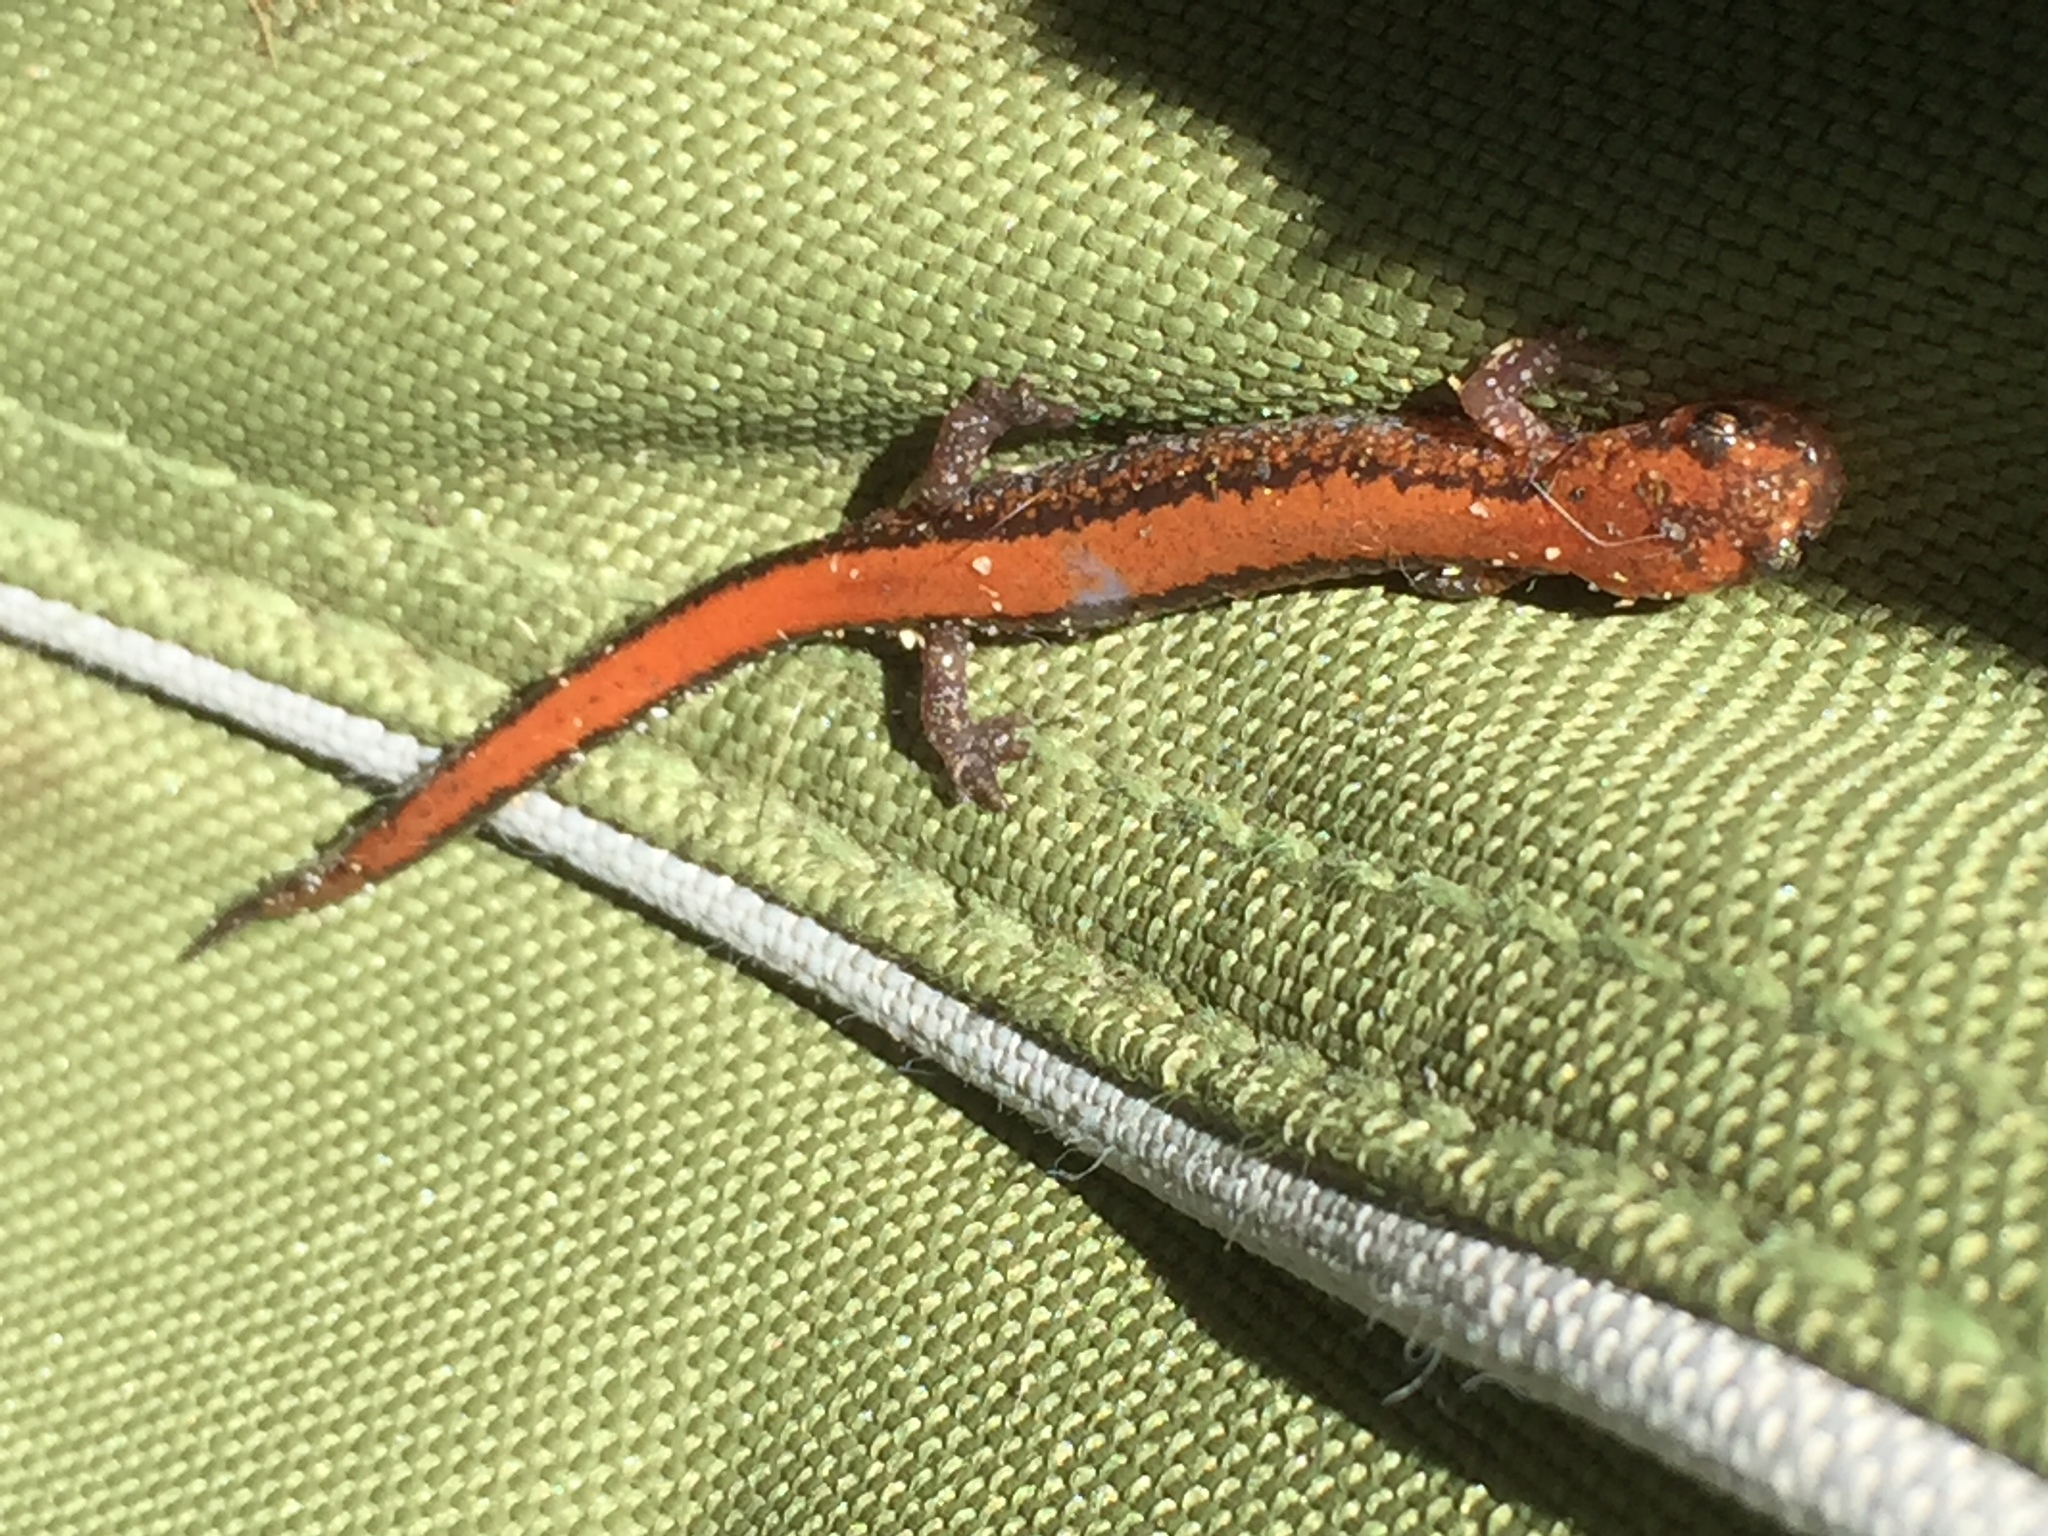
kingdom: Animalia
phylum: Chordata
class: Amphibia
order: Caudata
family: Plethodontidae
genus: Plethodon
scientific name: Plethodon cinereus
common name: Redback salamander
